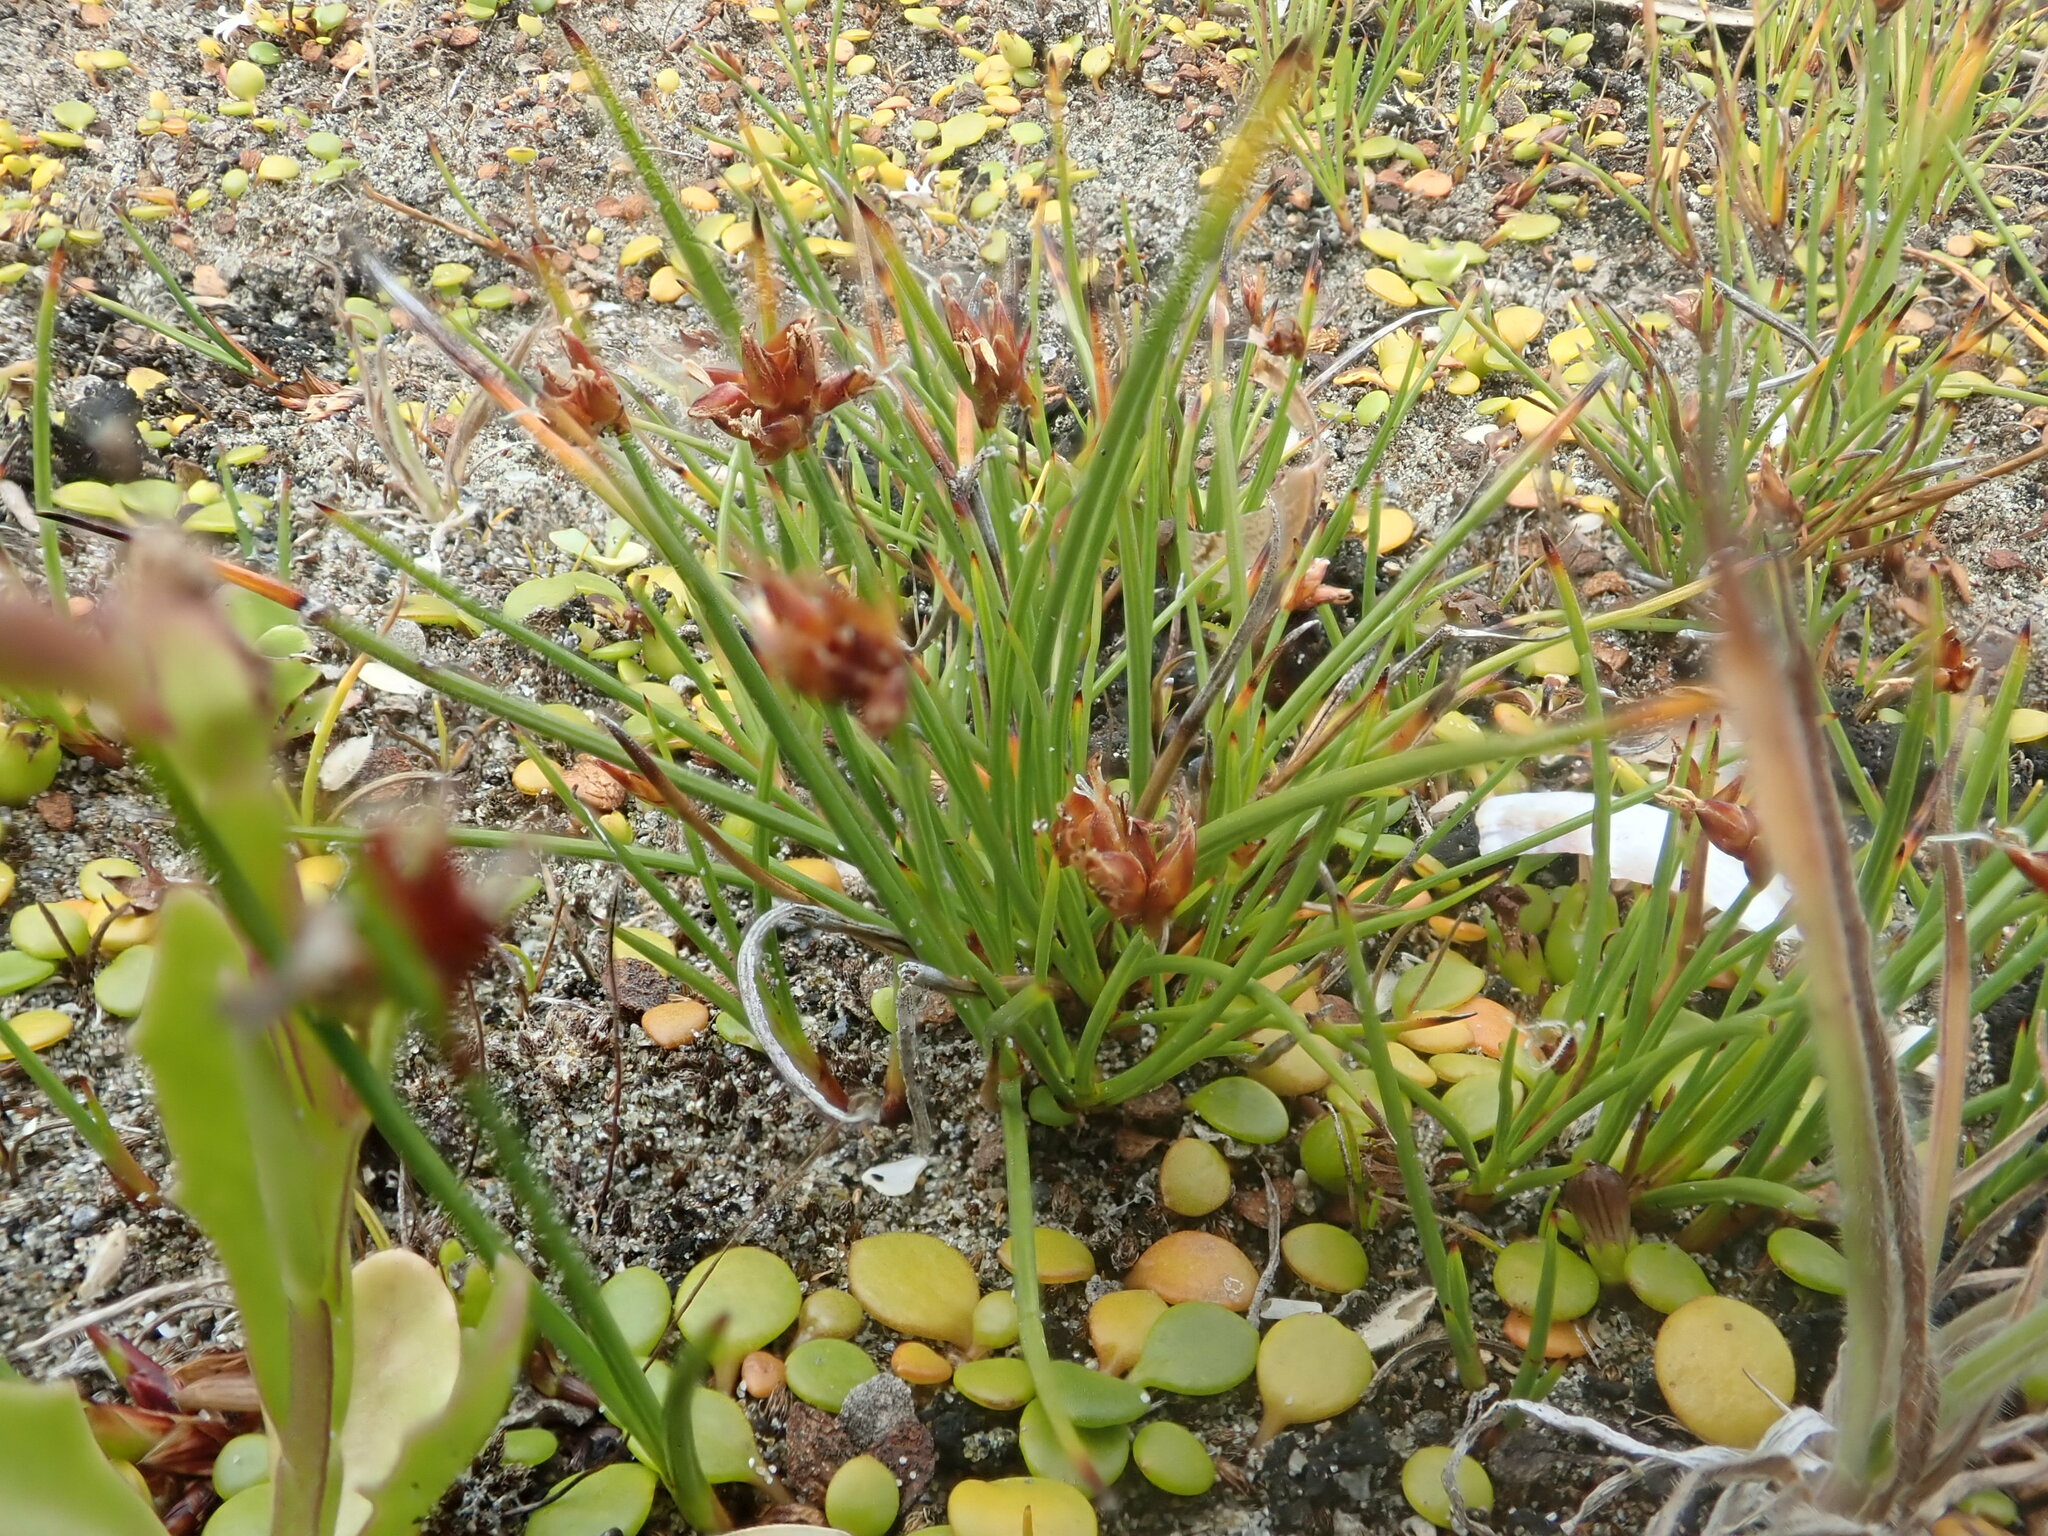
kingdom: Plantae
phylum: Tracheophyta
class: Liliopsida
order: Poales
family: Cyperaceae
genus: Schoenus
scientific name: Schoenus nitens
